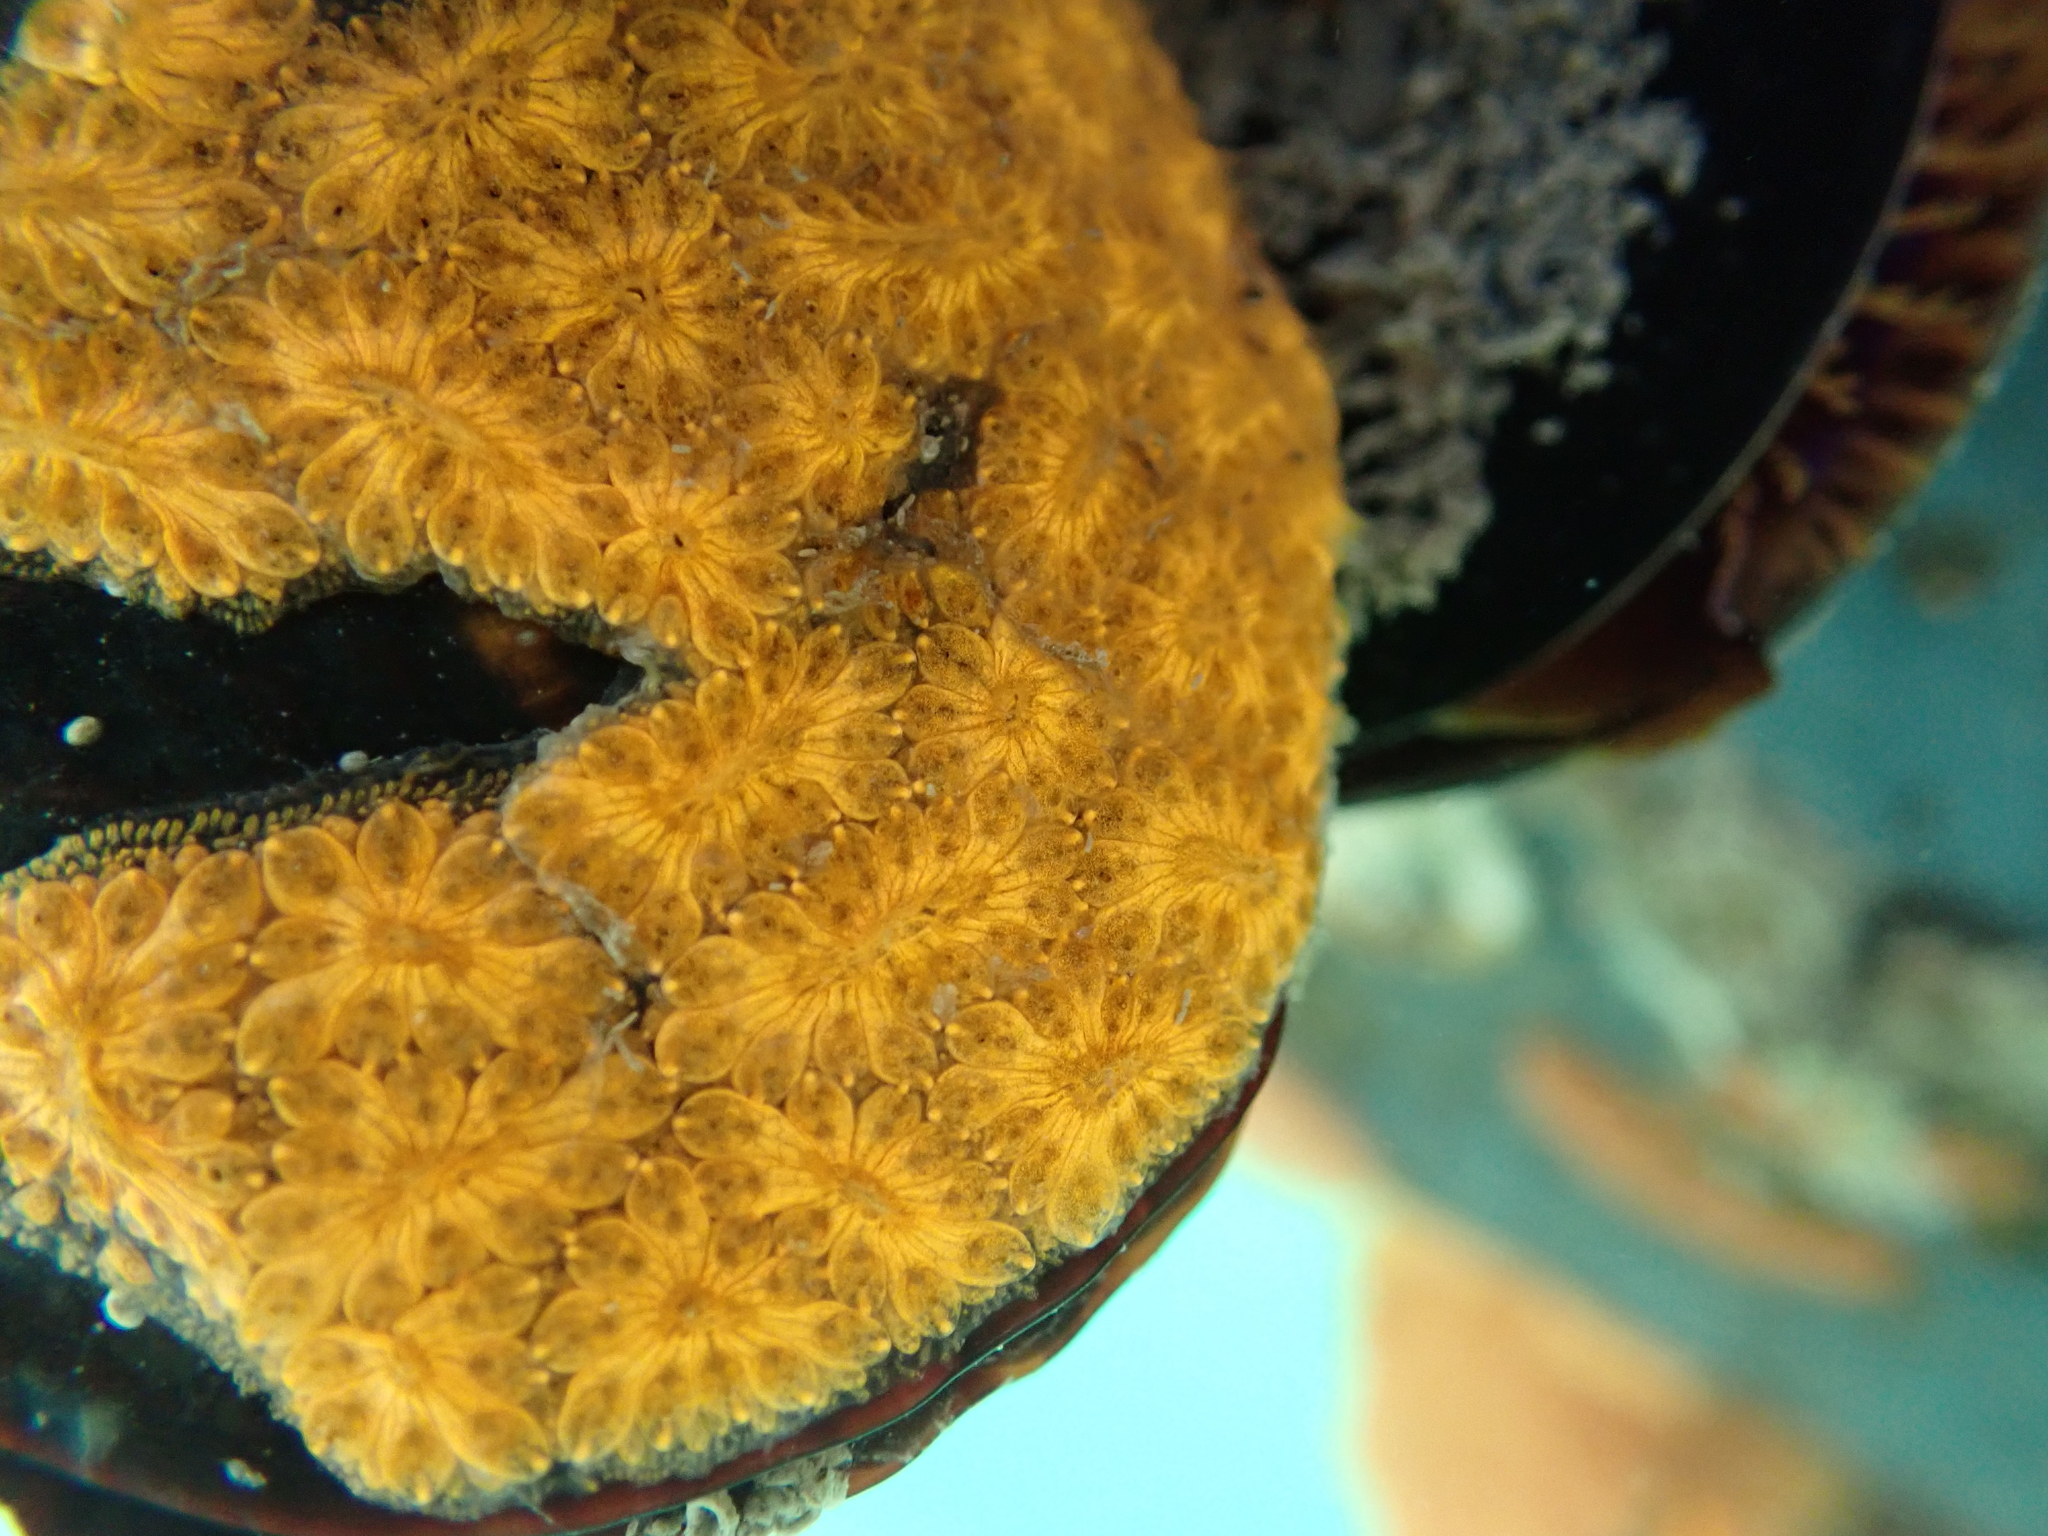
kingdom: Animalia
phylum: Chordata
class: Ascidiacea
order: Stolidobranchia
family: Styelidae
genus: Botryllus
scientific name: Botryllus schlosseri
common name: Golden star tunicate
